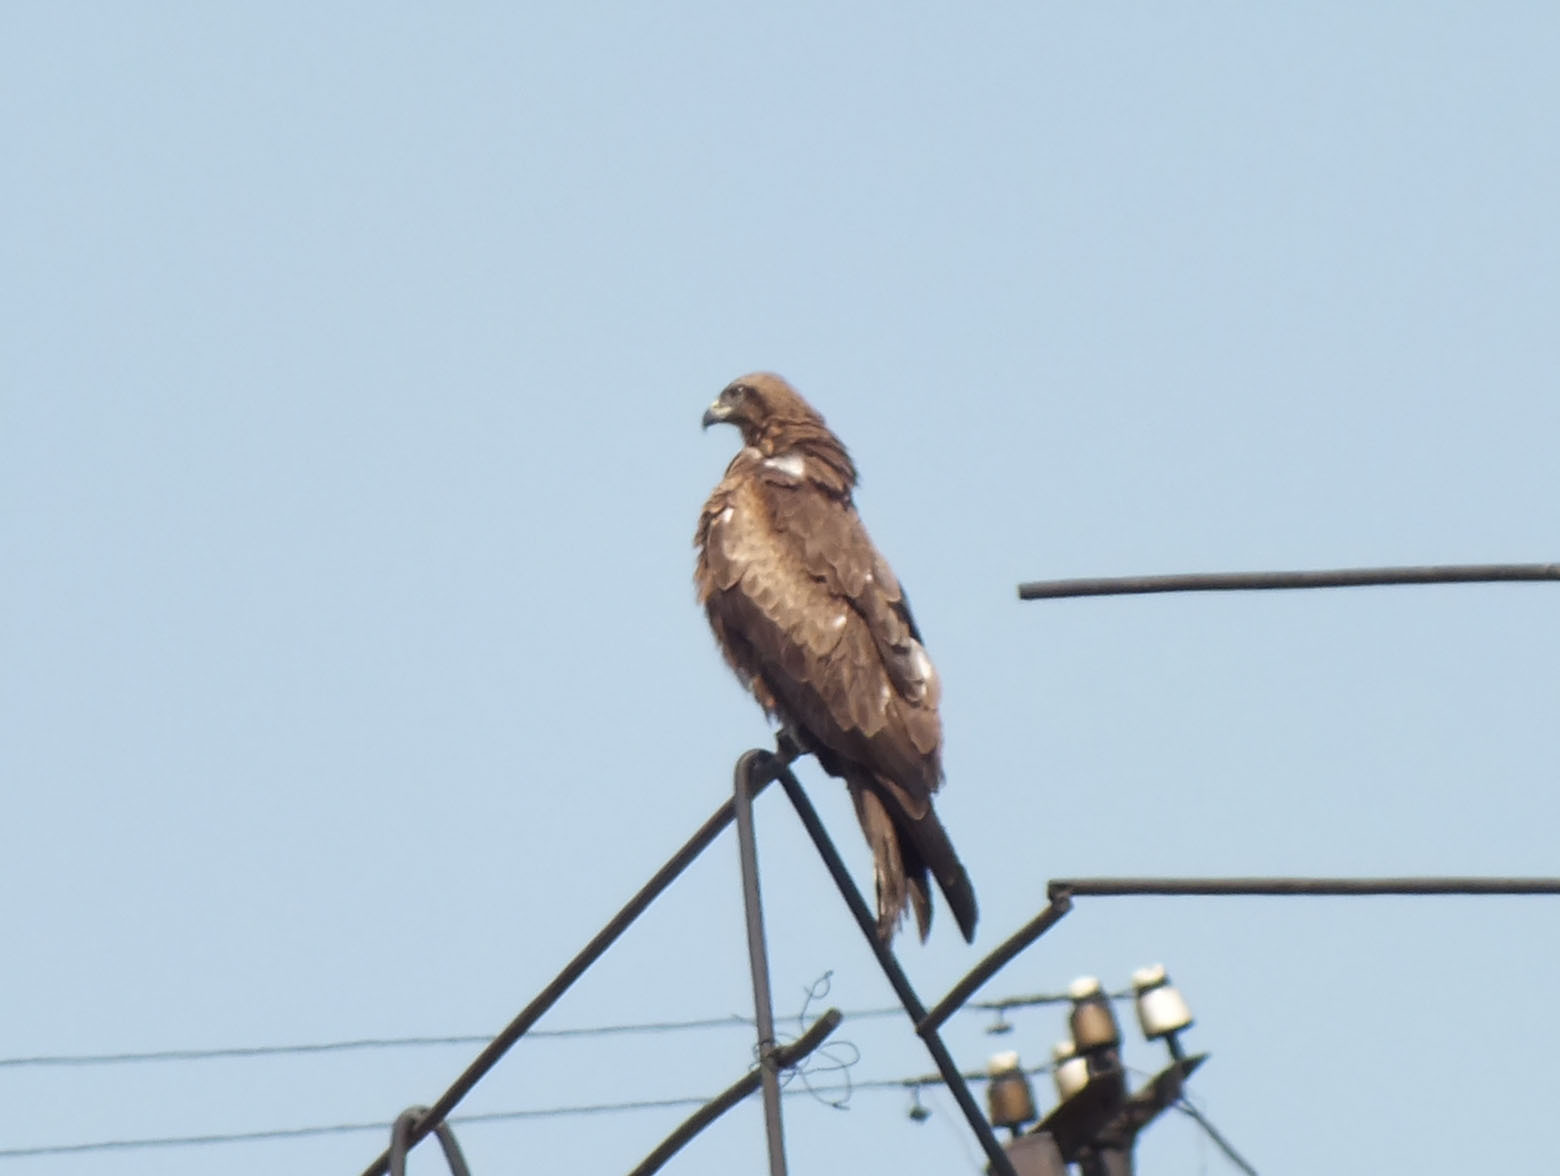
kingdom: Animalia
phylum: Chordata
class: Aves
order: Accipitriformes
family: Accipitridae
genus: Milvus
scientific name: Milvus migrans
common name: Black kite
